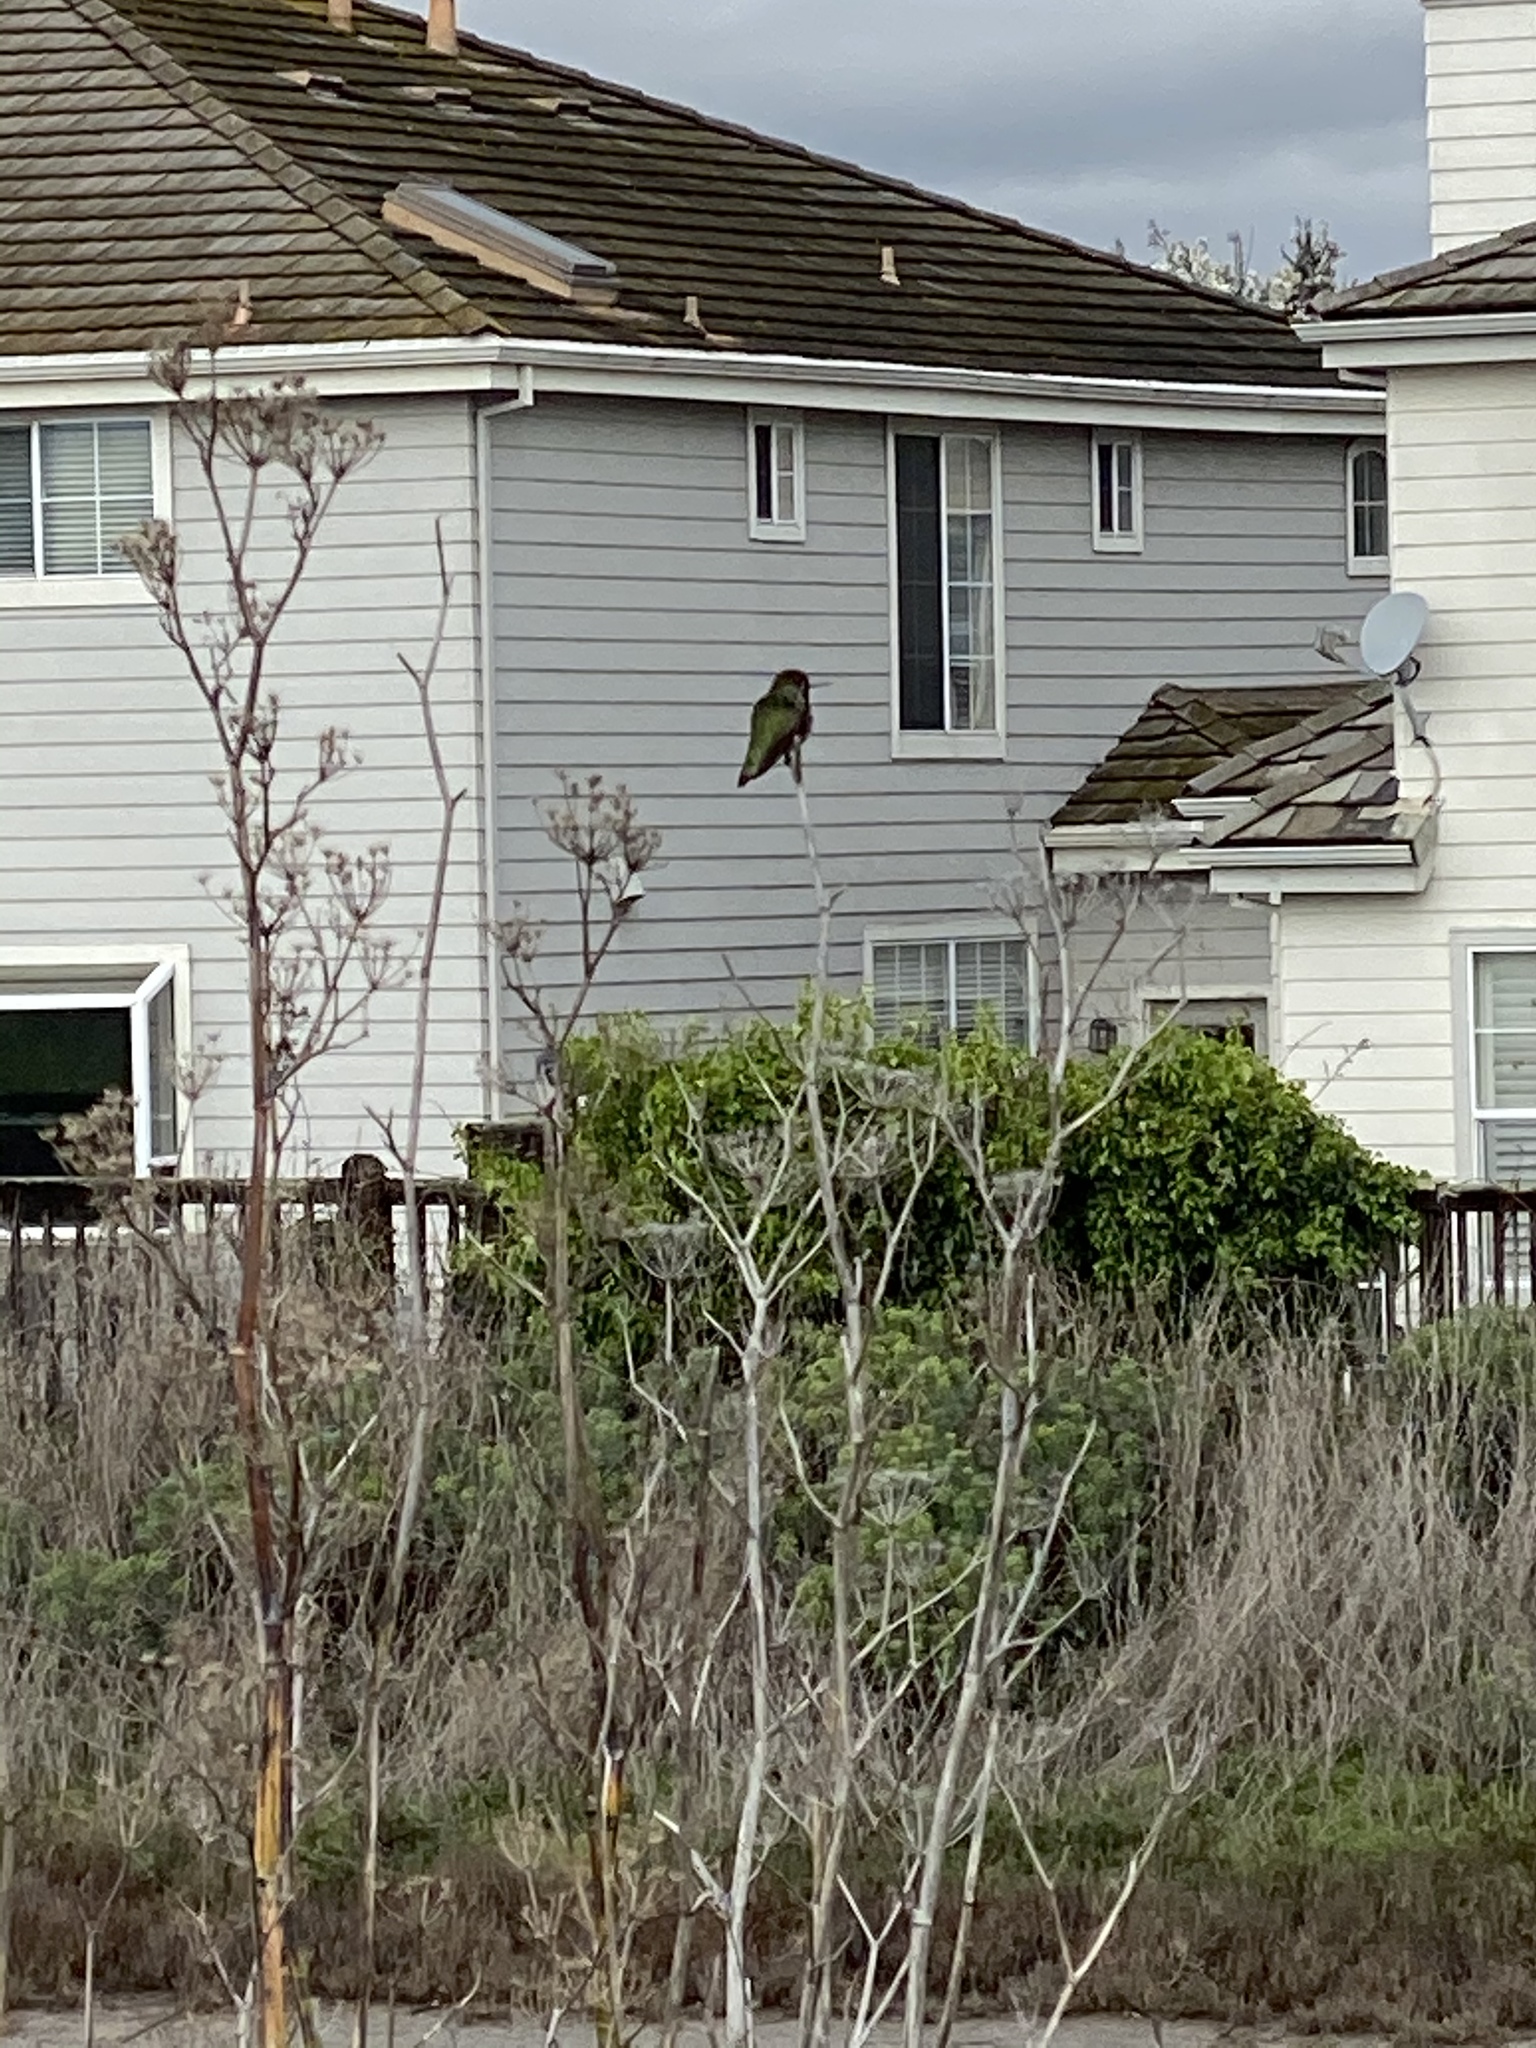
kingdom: Animalia
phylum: Chordata
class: Aves
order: Apodiformes
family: Trochilidae
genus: Calypte
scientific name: Calypte anna
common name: Anna's hummingbird
